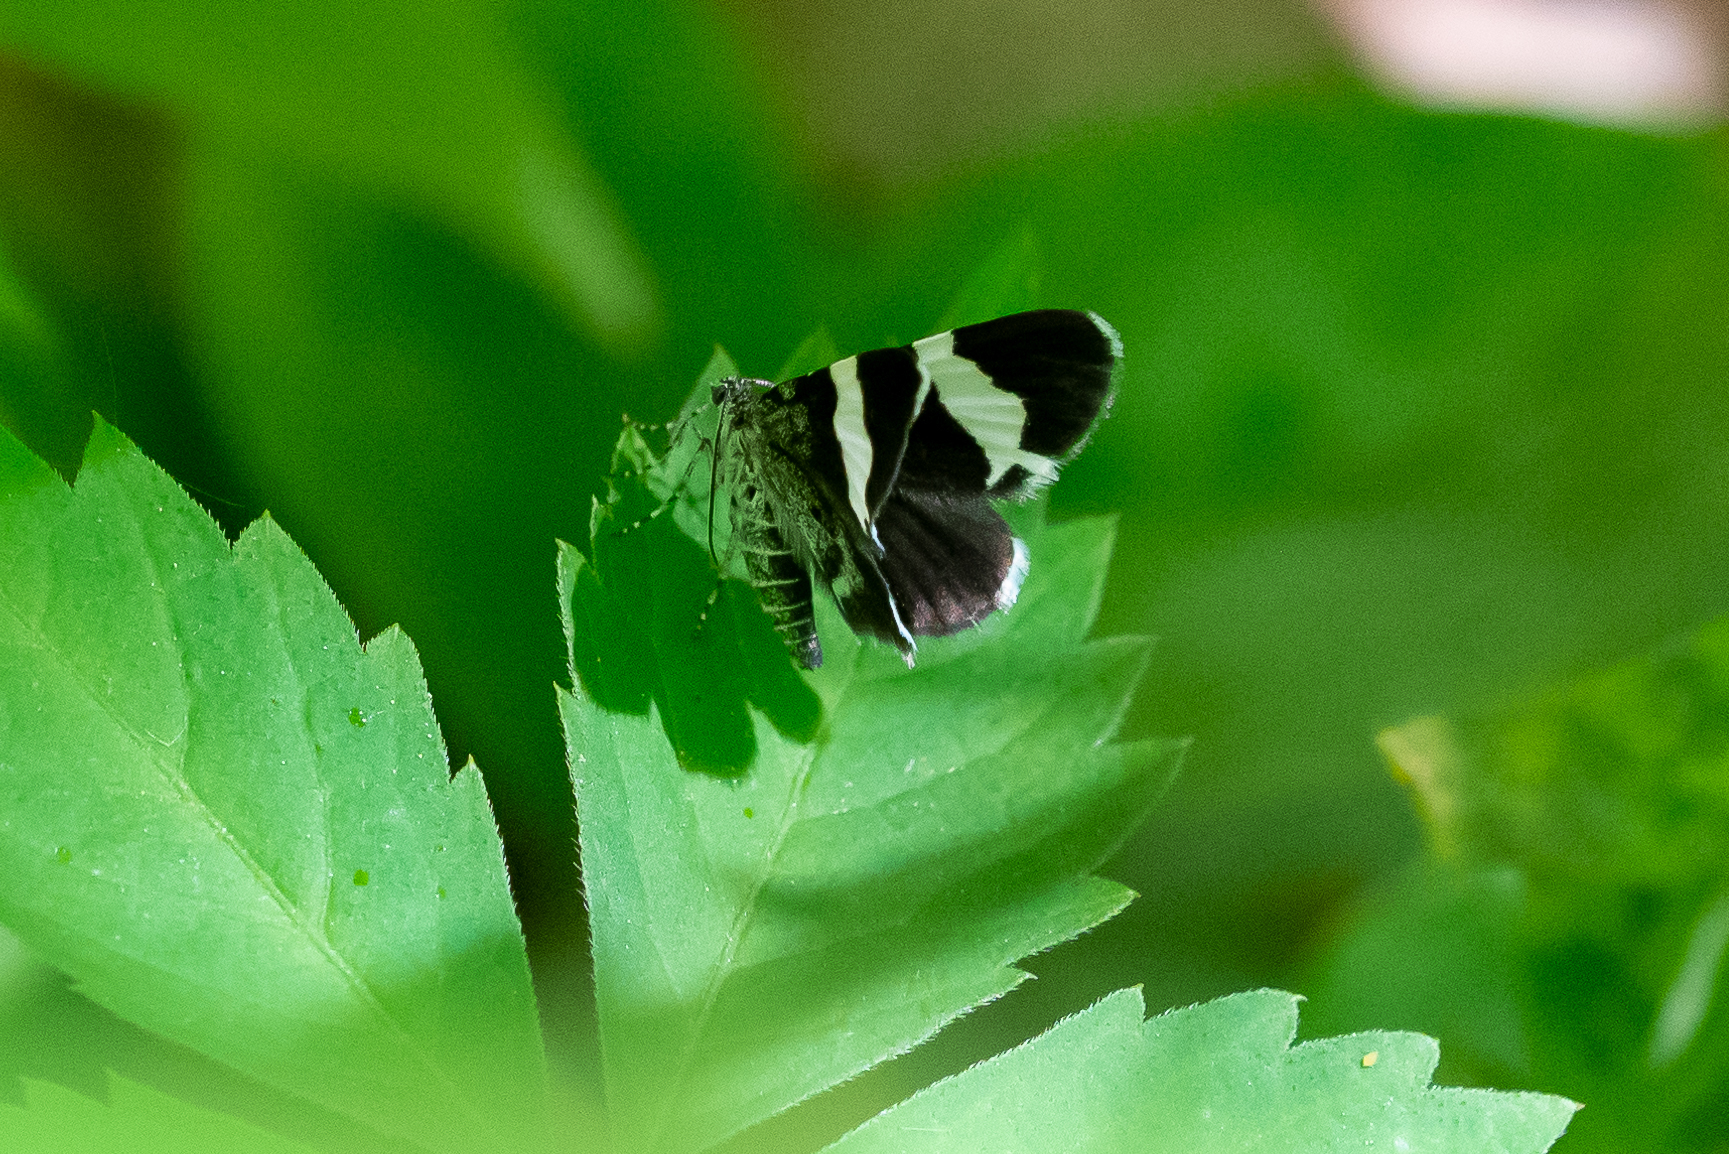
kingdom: Animalia
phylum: Arthropoda
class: Insecta
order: Lepidoptera
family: Geometridae
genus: Trichodezia
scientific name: Trichodezia albovittata
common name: White striped black
